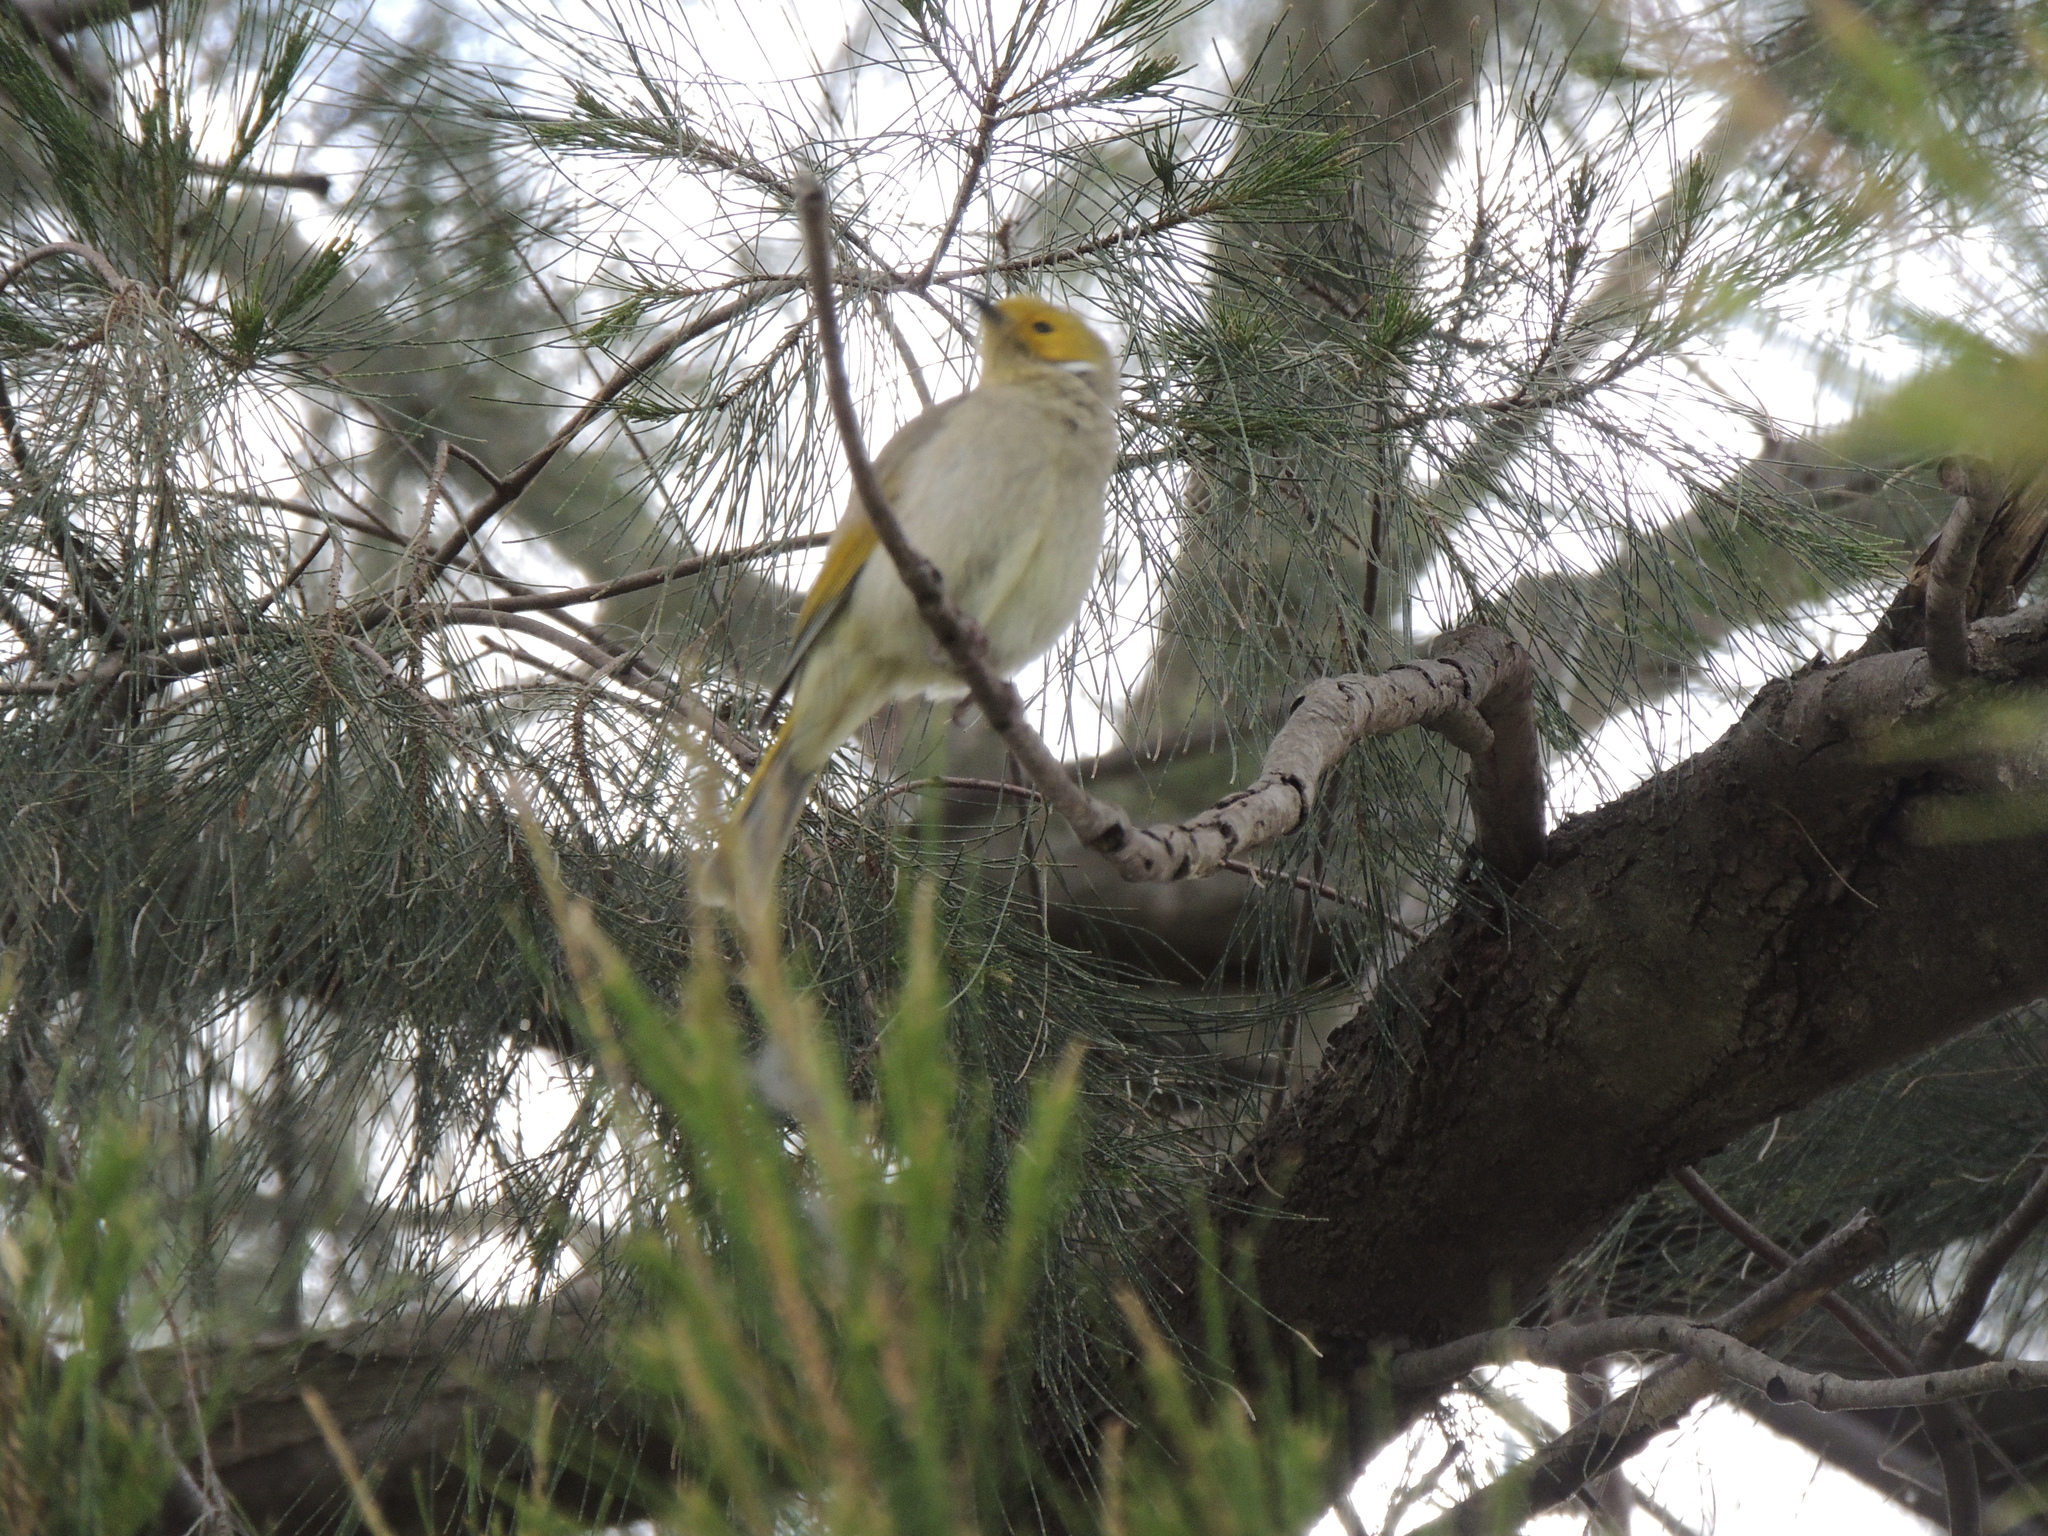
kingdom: Animalia
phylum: Chordata
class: Aves
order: Passeriformes
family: Meliphagidae
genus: Ptilotula
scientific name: Ptilotula penicillata
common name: White-plumed honeyeater
